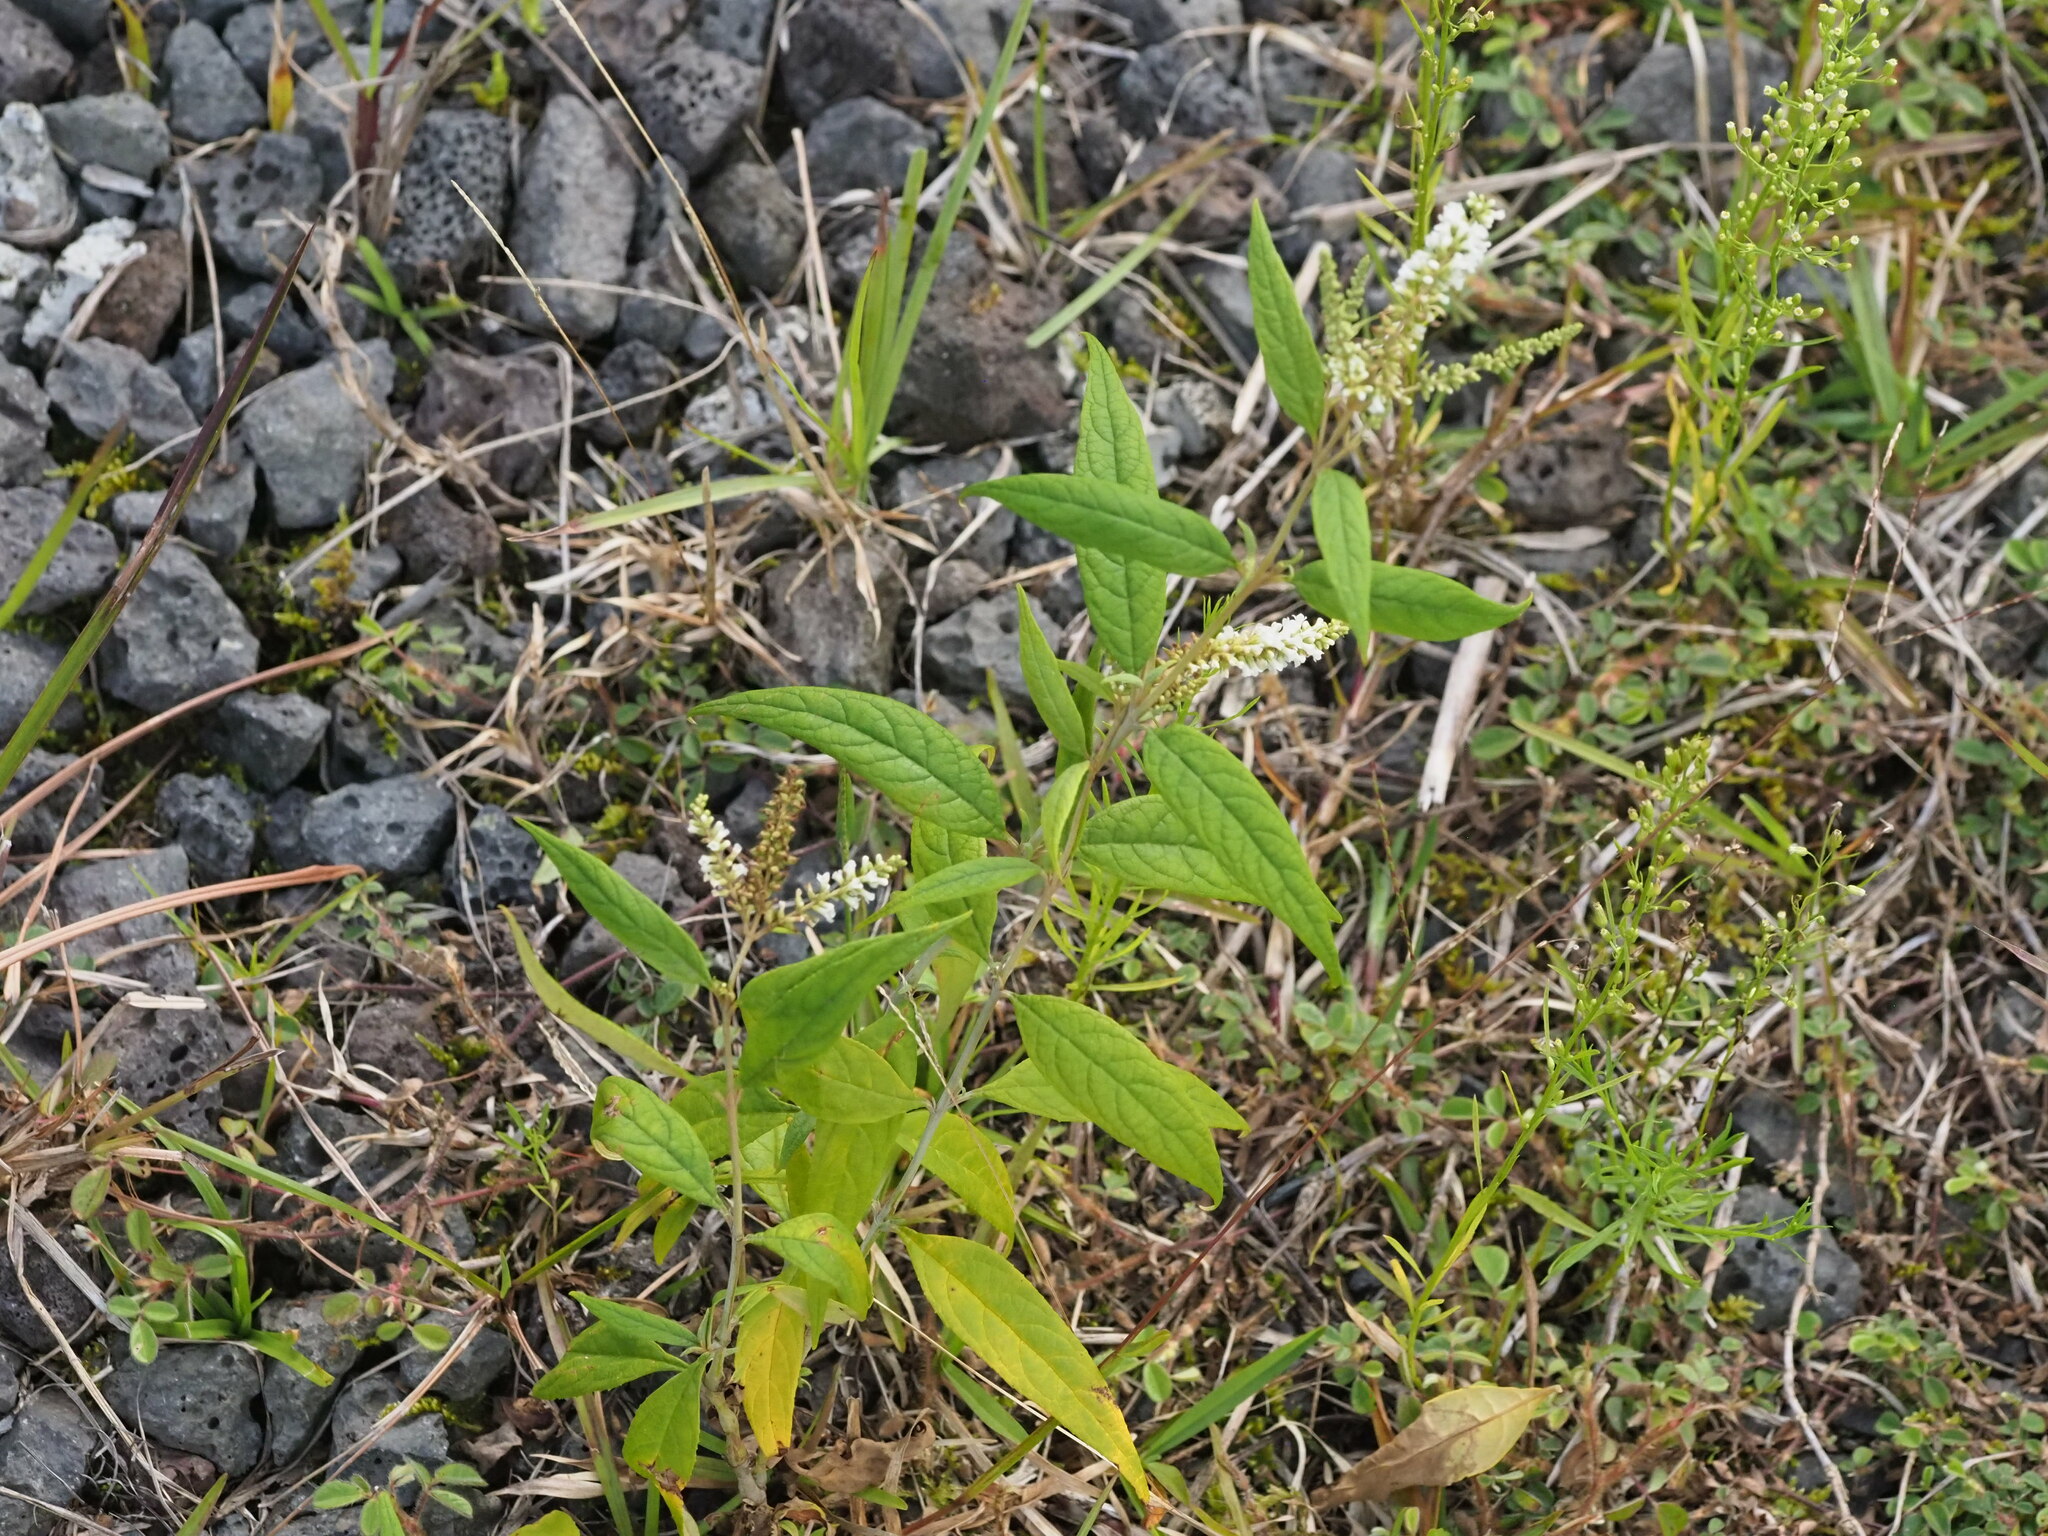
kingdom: Plantae
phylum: Tracheophyta
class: Magnoliopsida
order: Lamiales
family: Scrophulariaceae
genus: Buddleja
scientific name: Buddleja asiatica
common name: Dog tail
